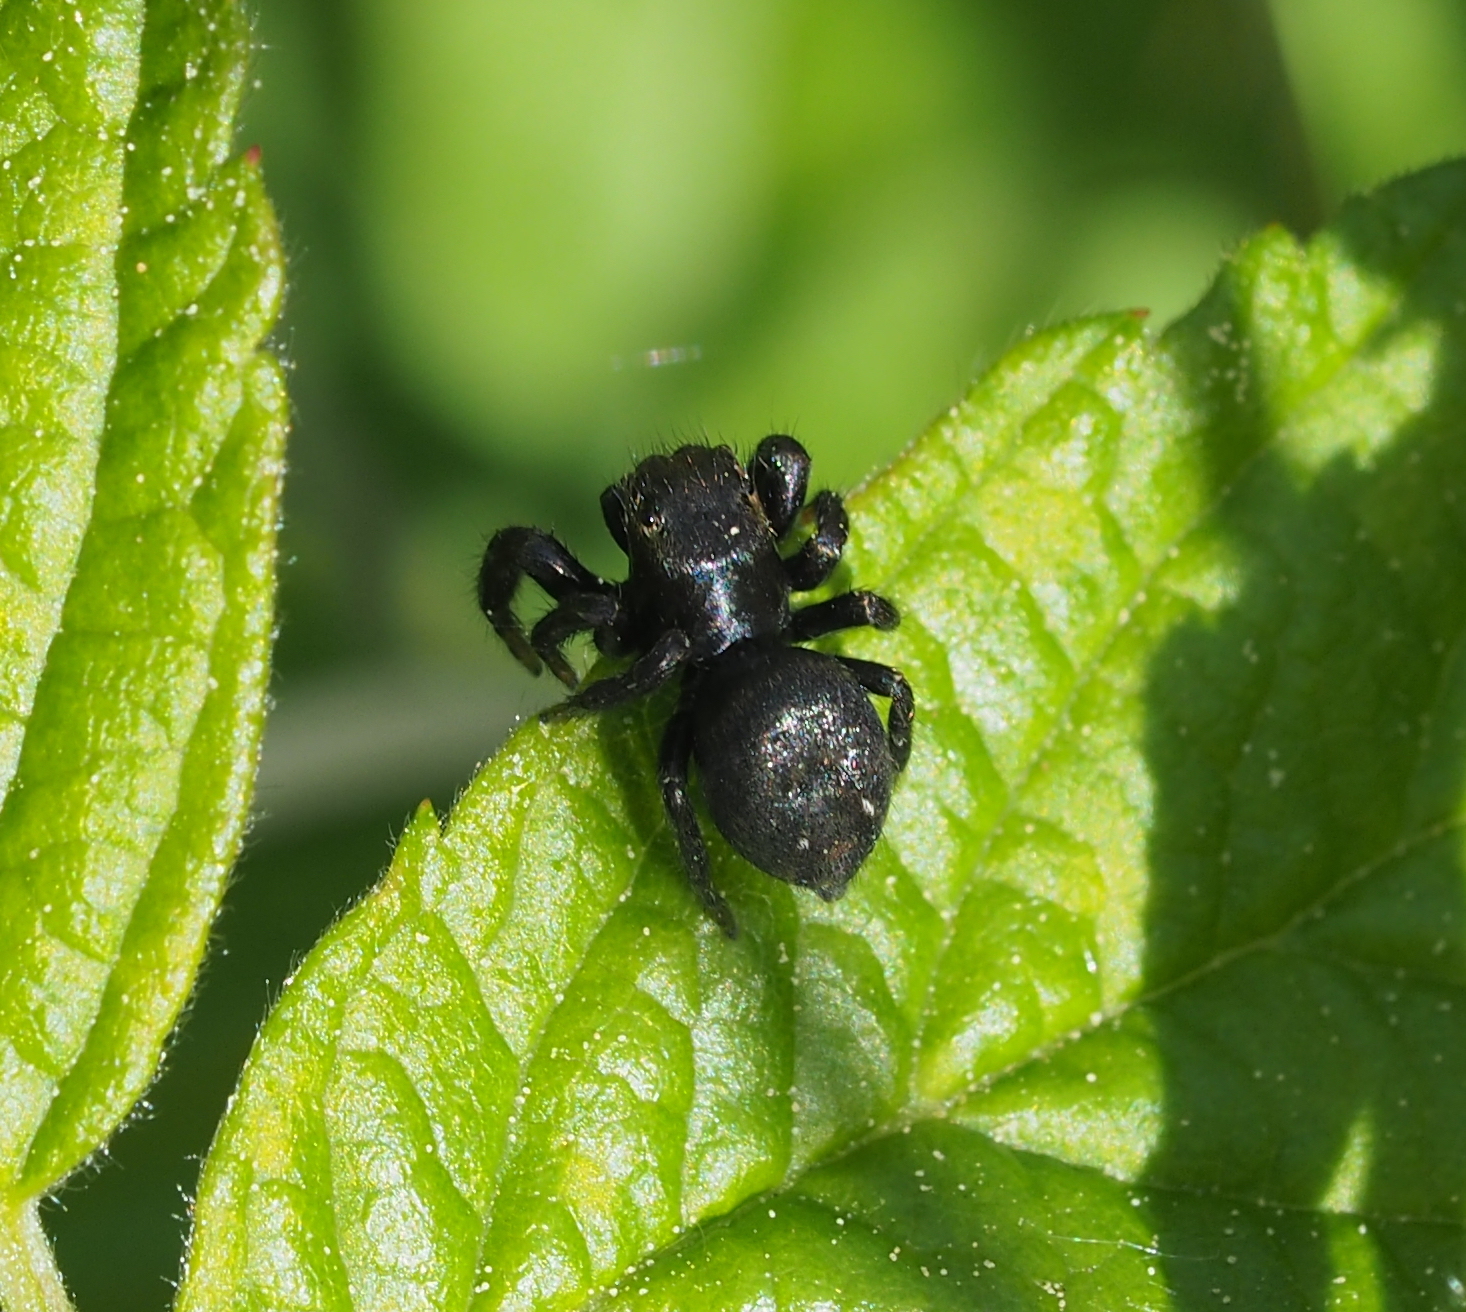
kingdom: Animalia
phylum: Arthropoda
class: Arachnida
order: Araneae
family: Salticidae
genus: Evarcha
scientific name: Evarcha arcuata
